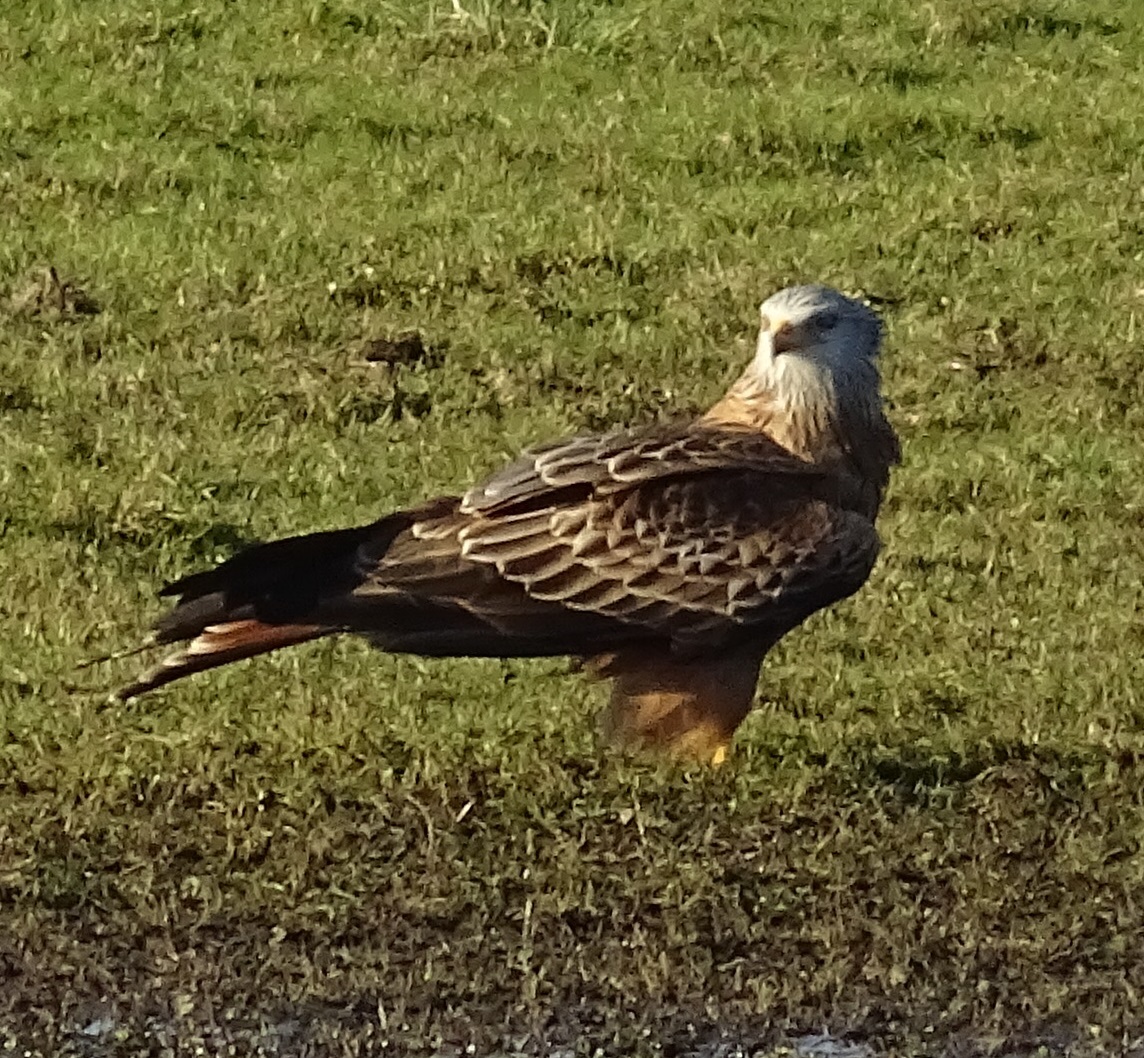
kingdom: Animalia
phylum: Chordata
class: Aves
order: Accipitriformes
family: Accipitridae
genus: Milvus
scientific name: Milvus milvus
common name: Red kite
